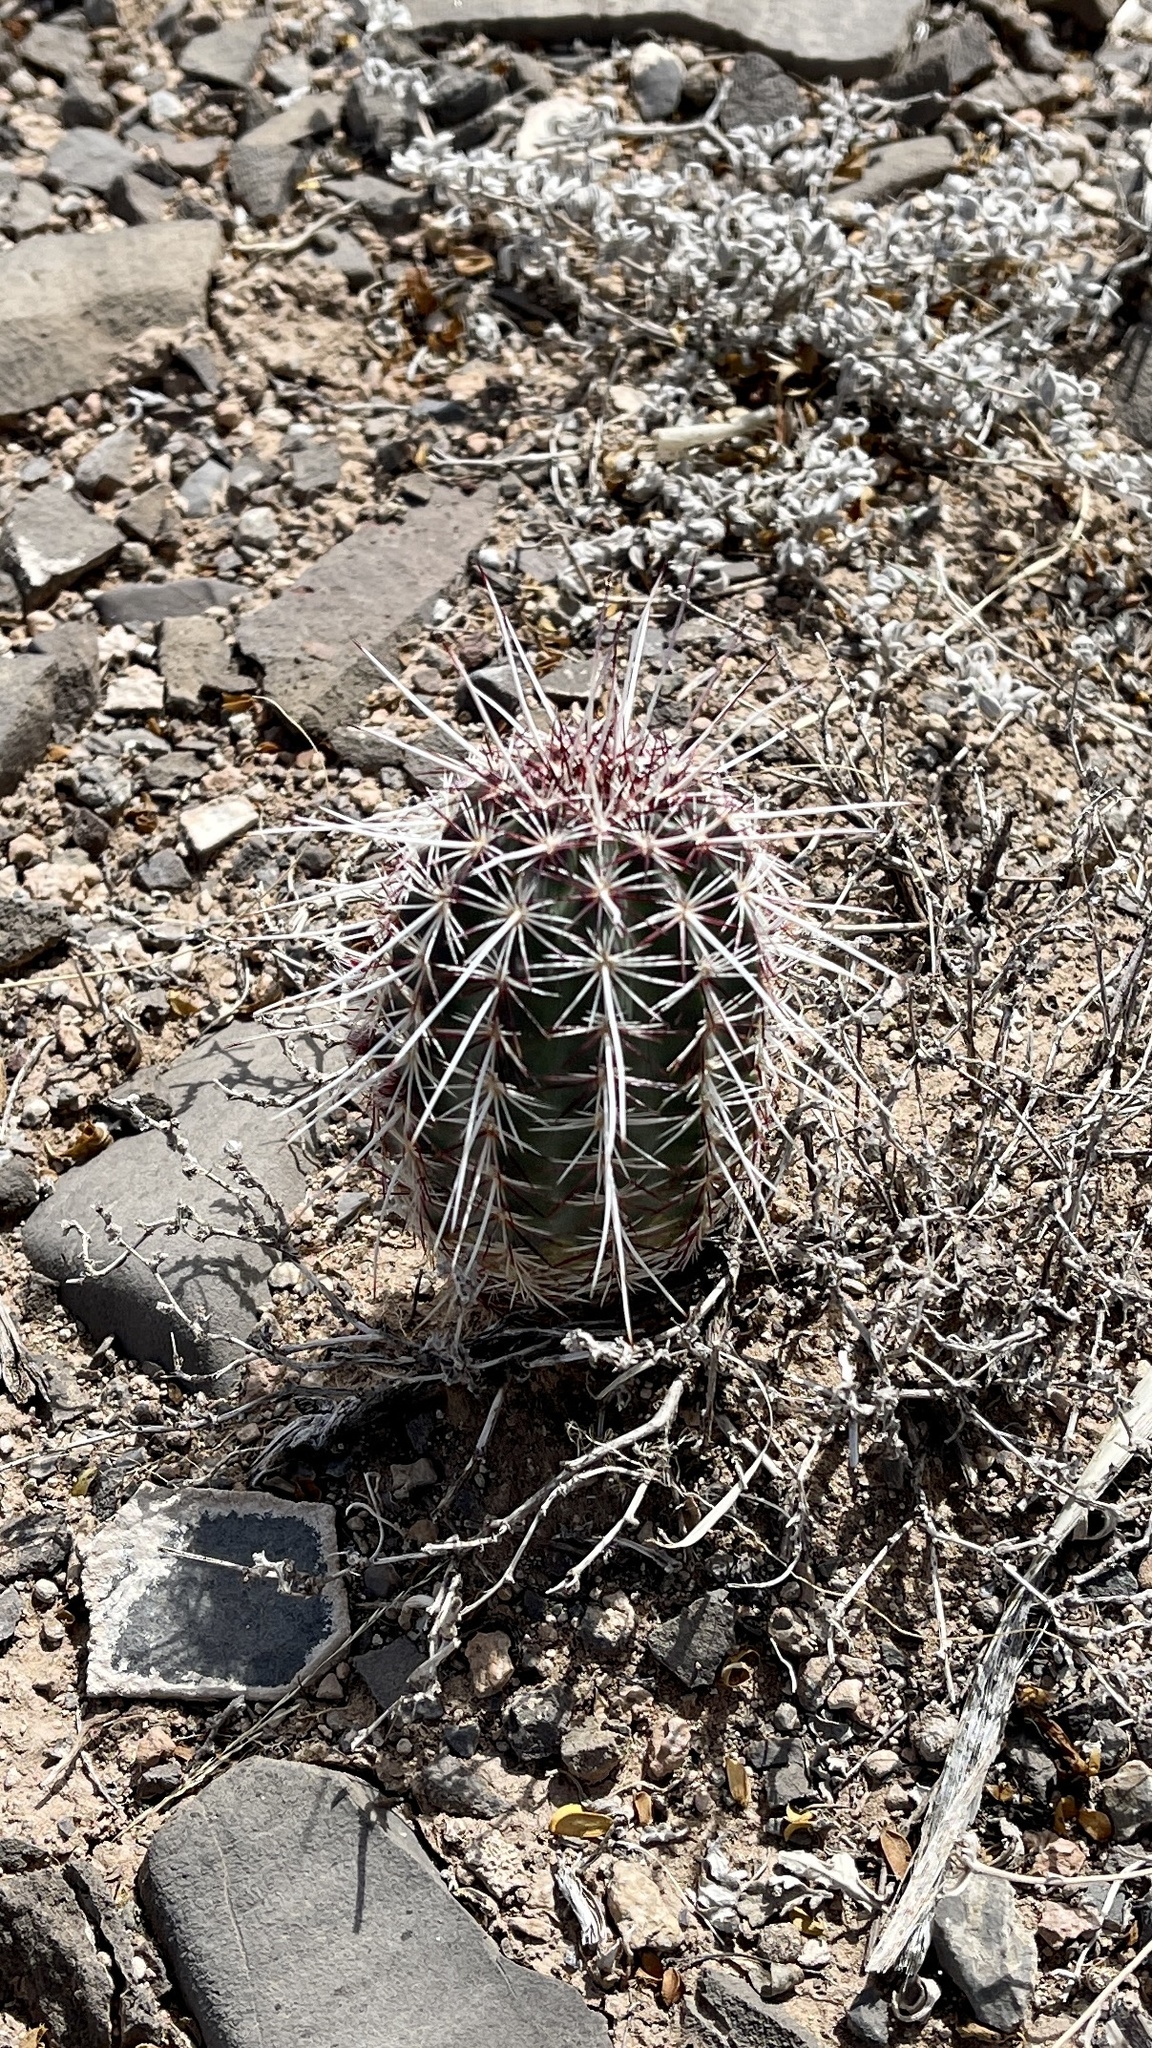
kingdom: Plantae
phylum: Tracheophyta
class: Magnoliopsida
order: Caryophyllales
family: Cactaceae
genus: Echinocereus
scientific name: Echinocereus viridiflorus
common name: Nylon hedgehog cactus
